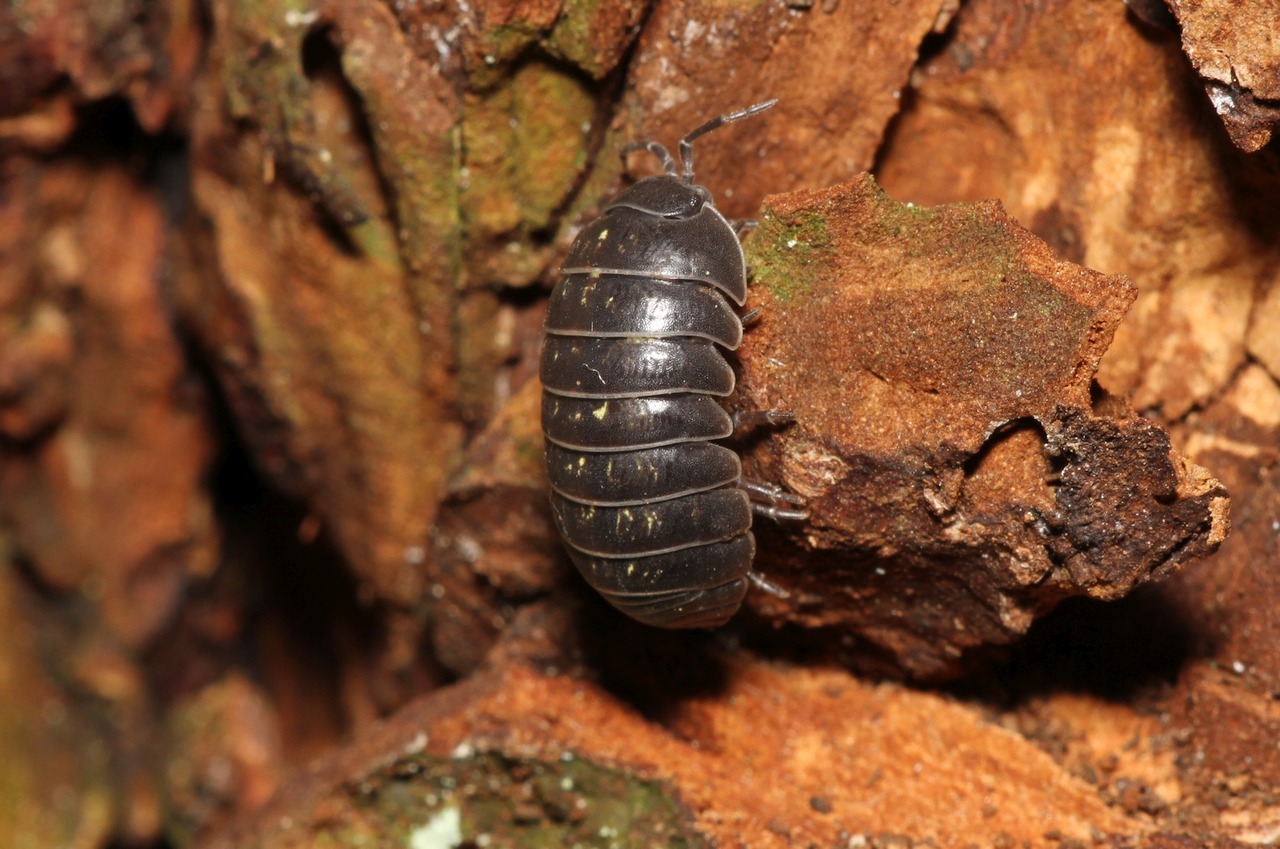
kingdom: Animalia
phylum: Arthropoda
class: Malacostraca
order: Isopoda
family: Armadillidiidae
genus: Armadillidium
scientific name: Armadillidium vulgare
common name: Common pill woodlouse
